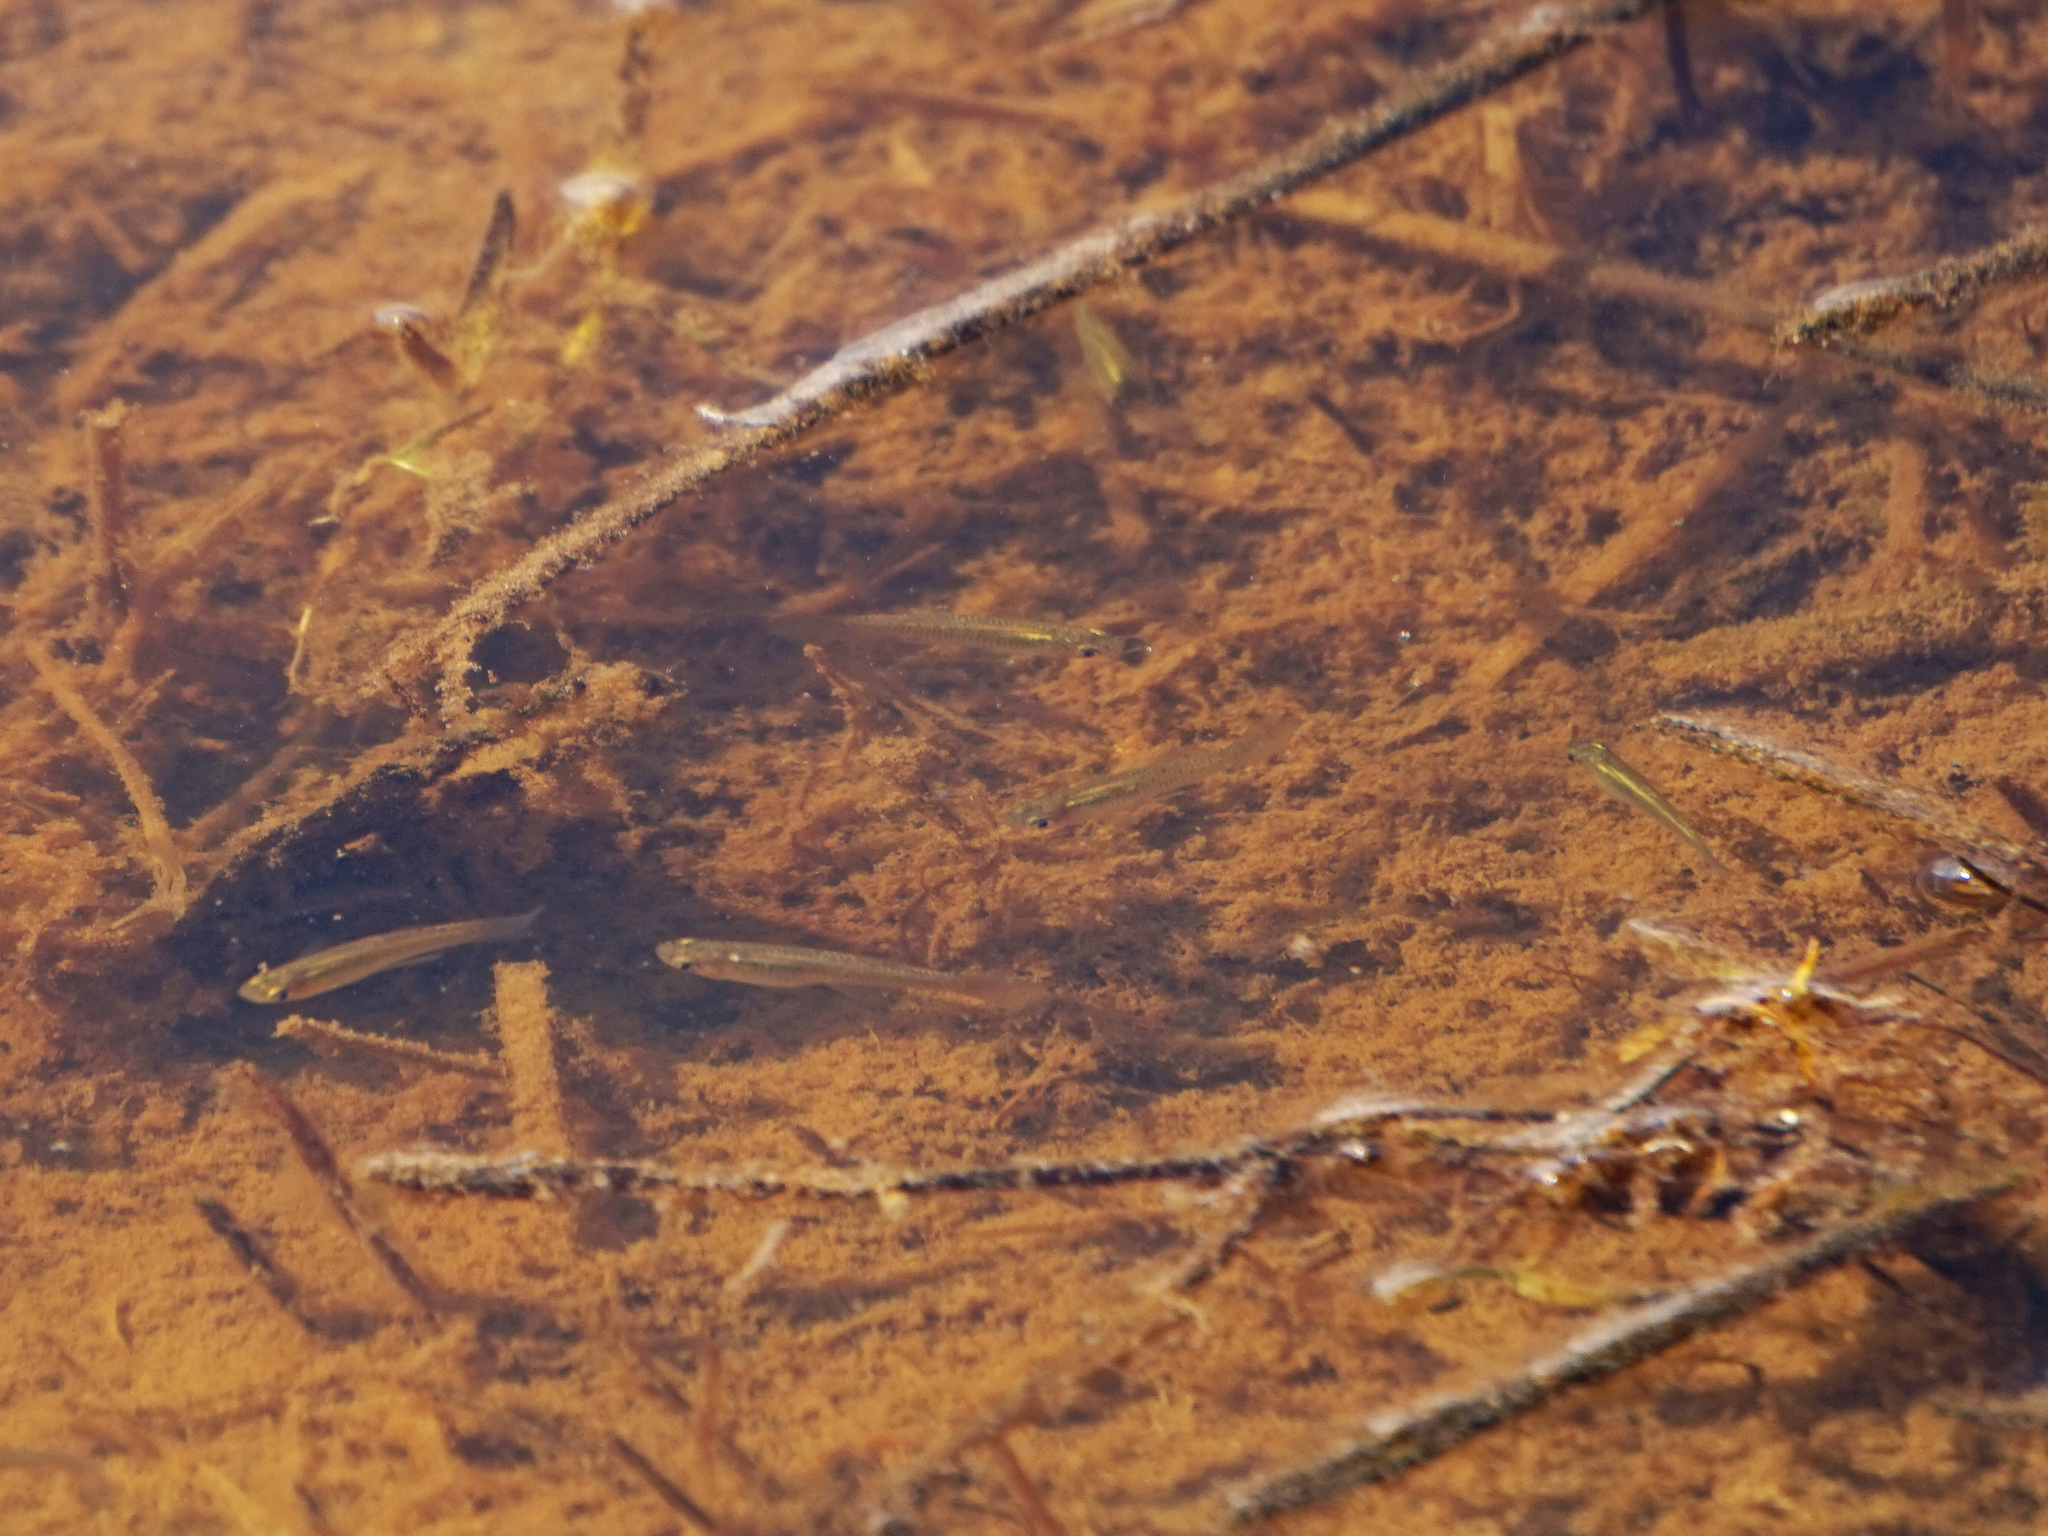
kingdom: Animalia
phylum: Chordata
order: Cyprinodontiformes
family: Poeciliidae
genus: Gambusia
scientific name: Gambusia holbrooki
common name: Eastern mosquitofish
